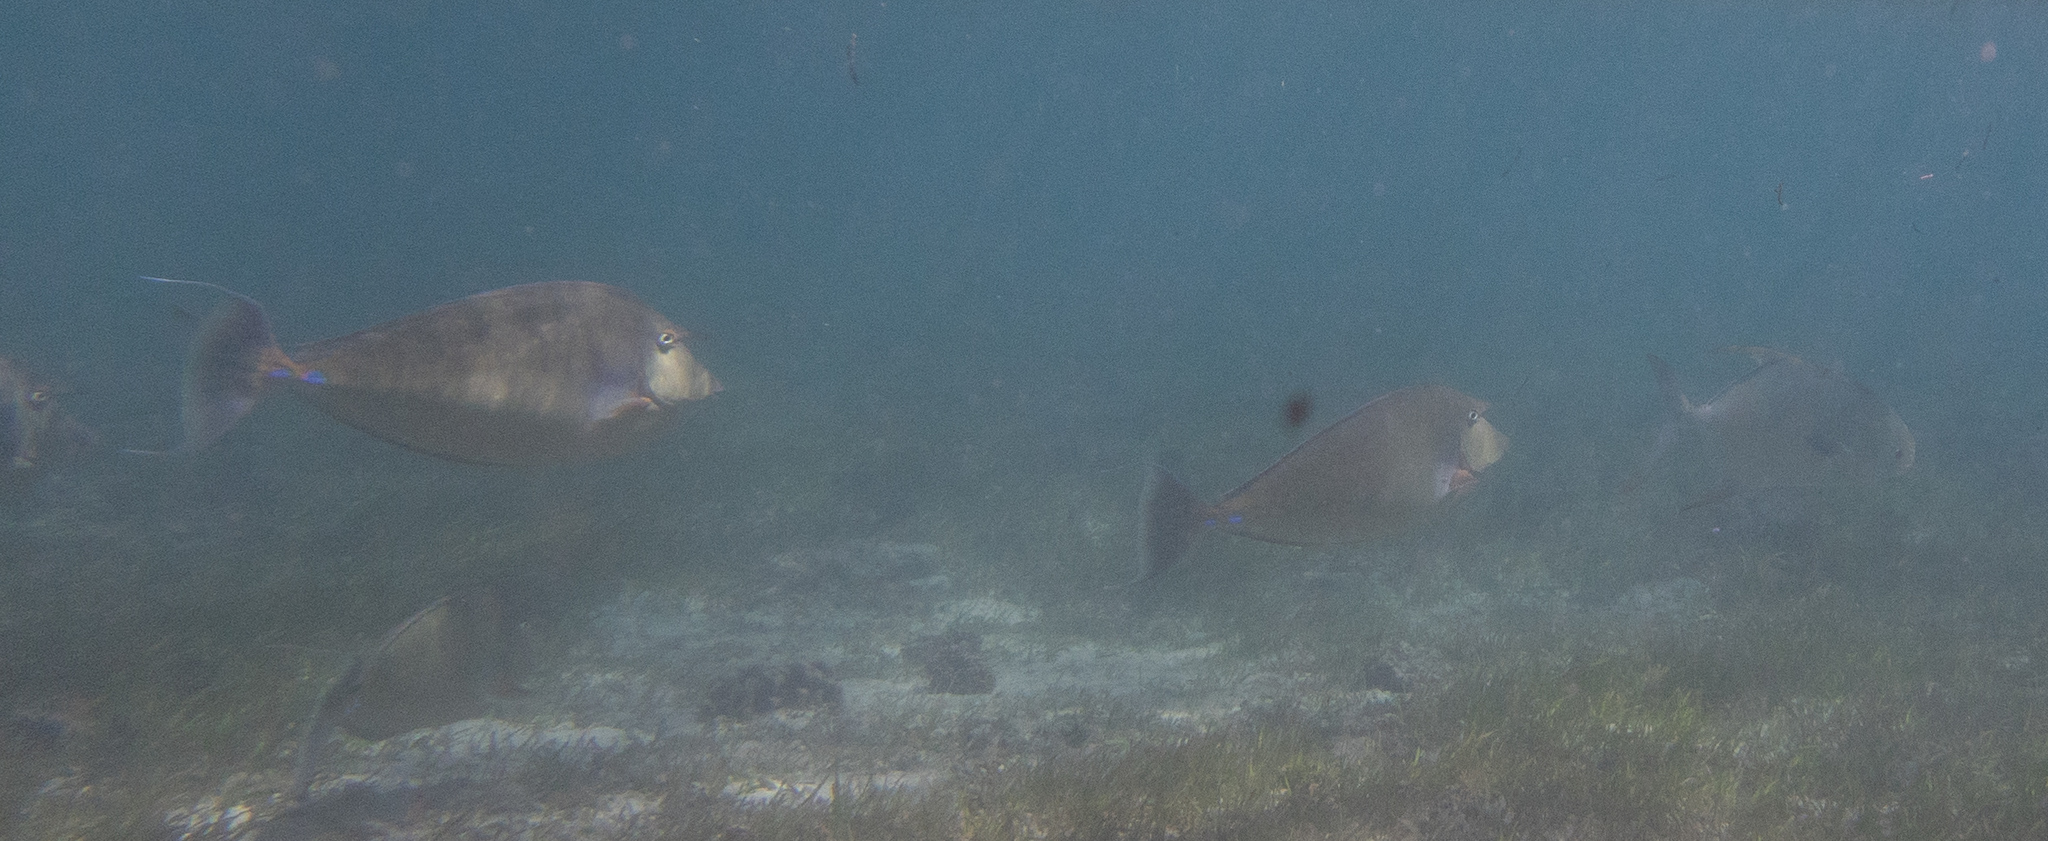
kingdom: Animalia
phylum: Chordata
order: Perciformes
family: Acanthuridae
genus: Naso
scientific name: Naso unicornis
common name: Bluespine unicornfish
